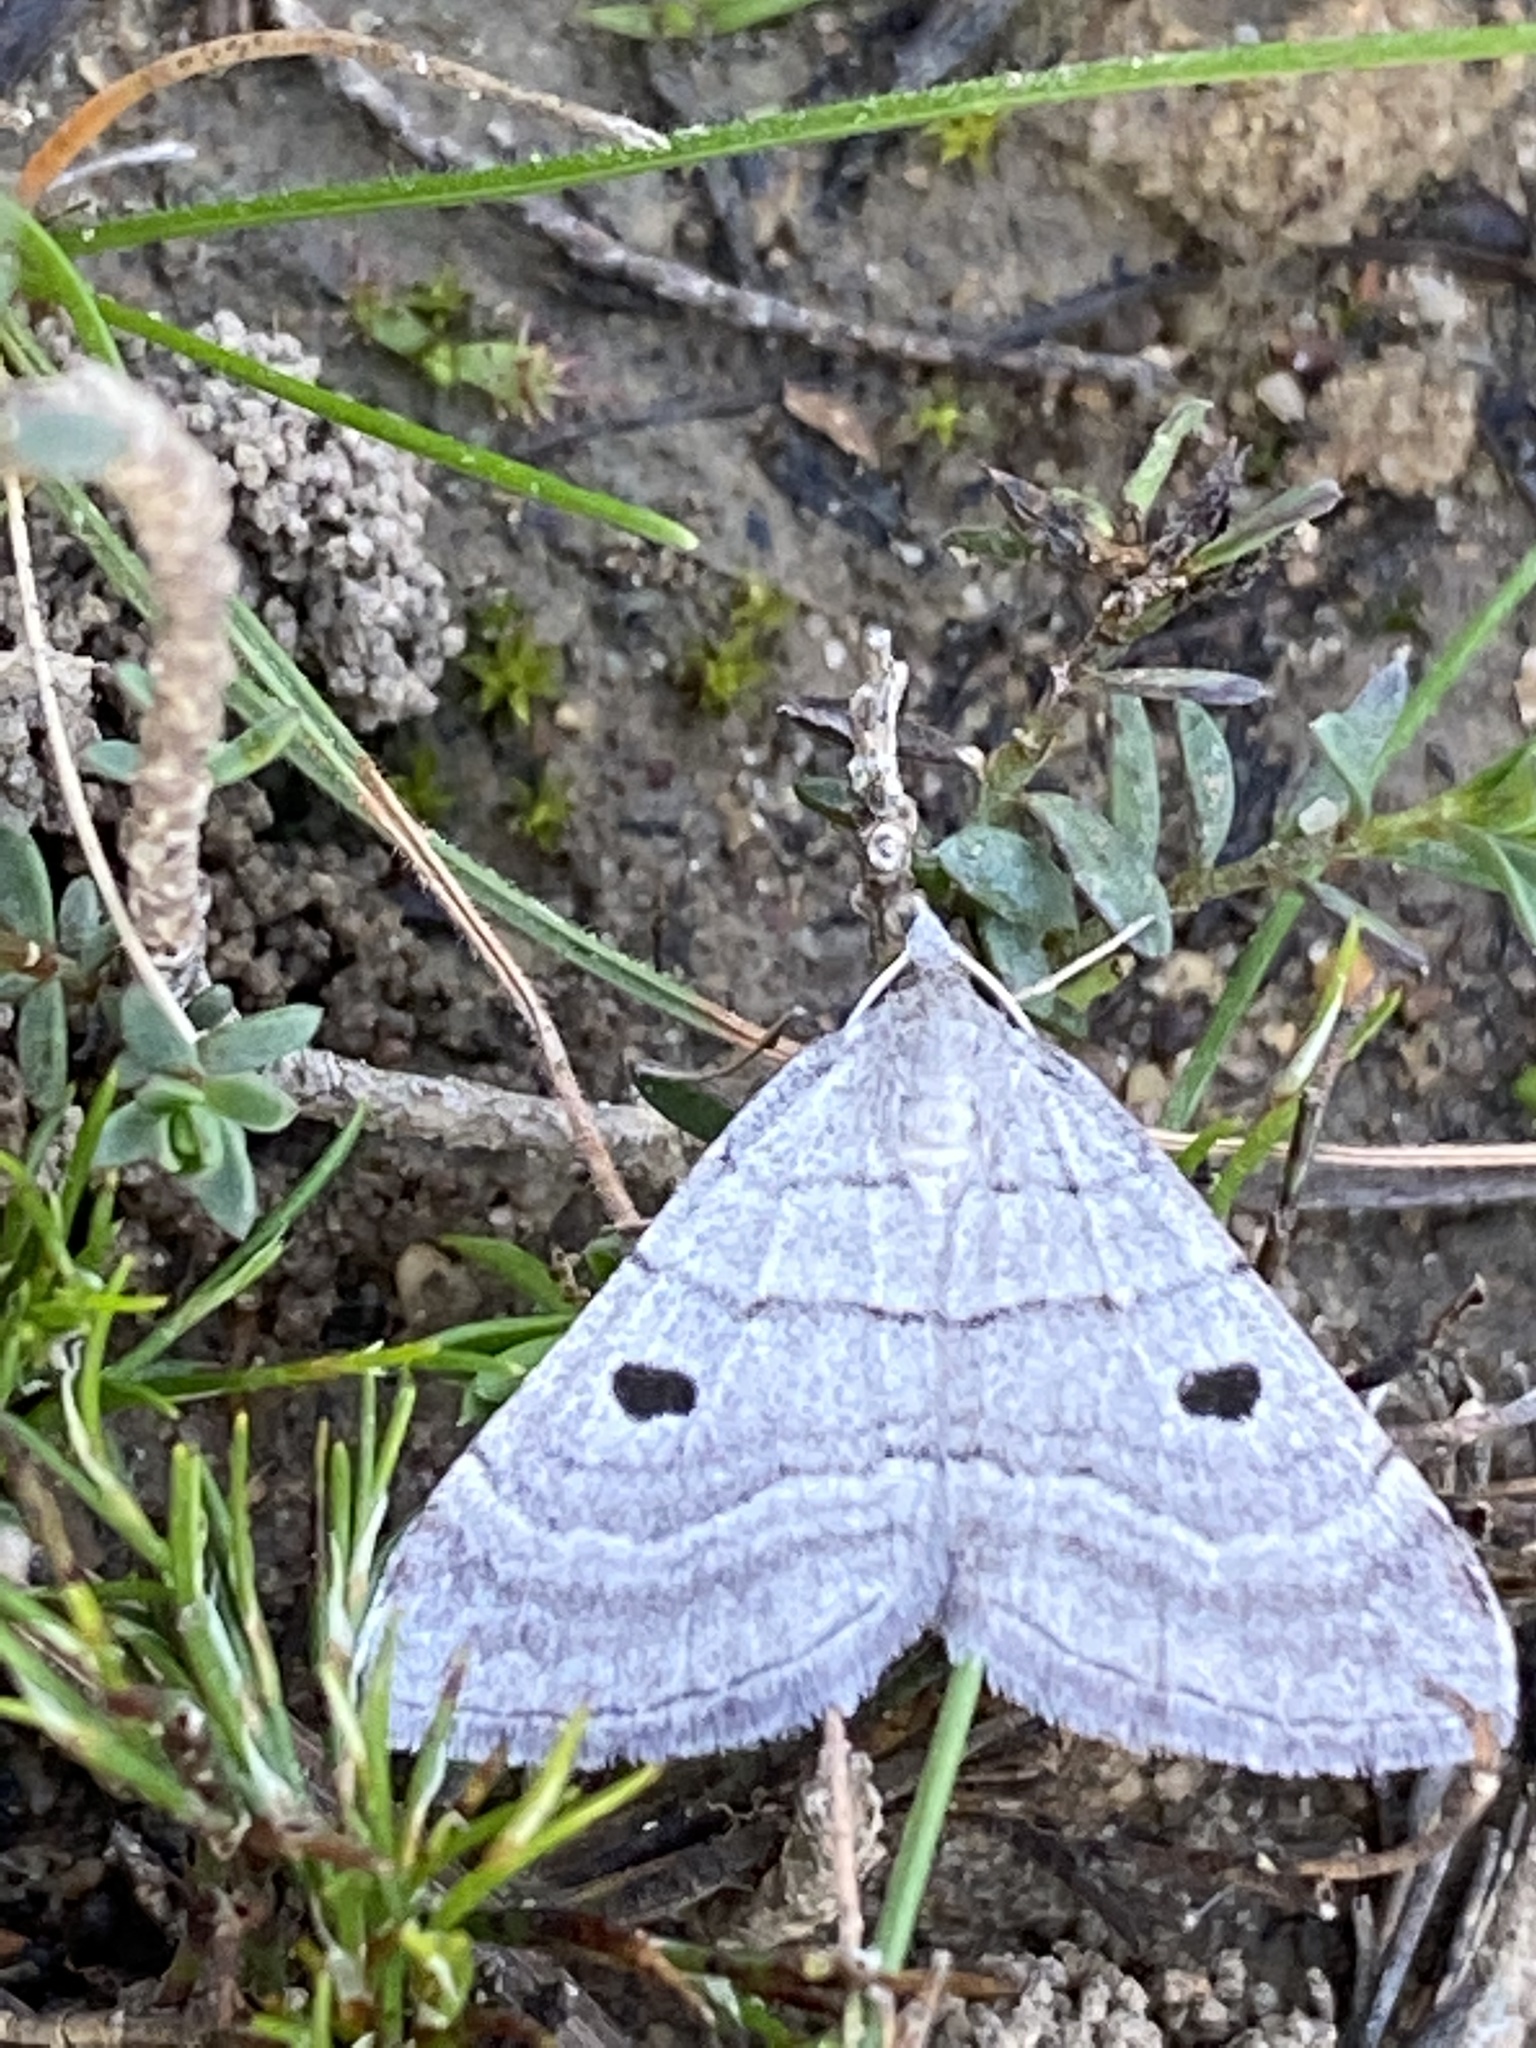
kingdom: Animalia
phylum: Arthropoda
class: Insecta
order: Lepidoptera
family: Geometridae
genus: Pseudolarentia
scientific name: Pseudolarentia megalaria
